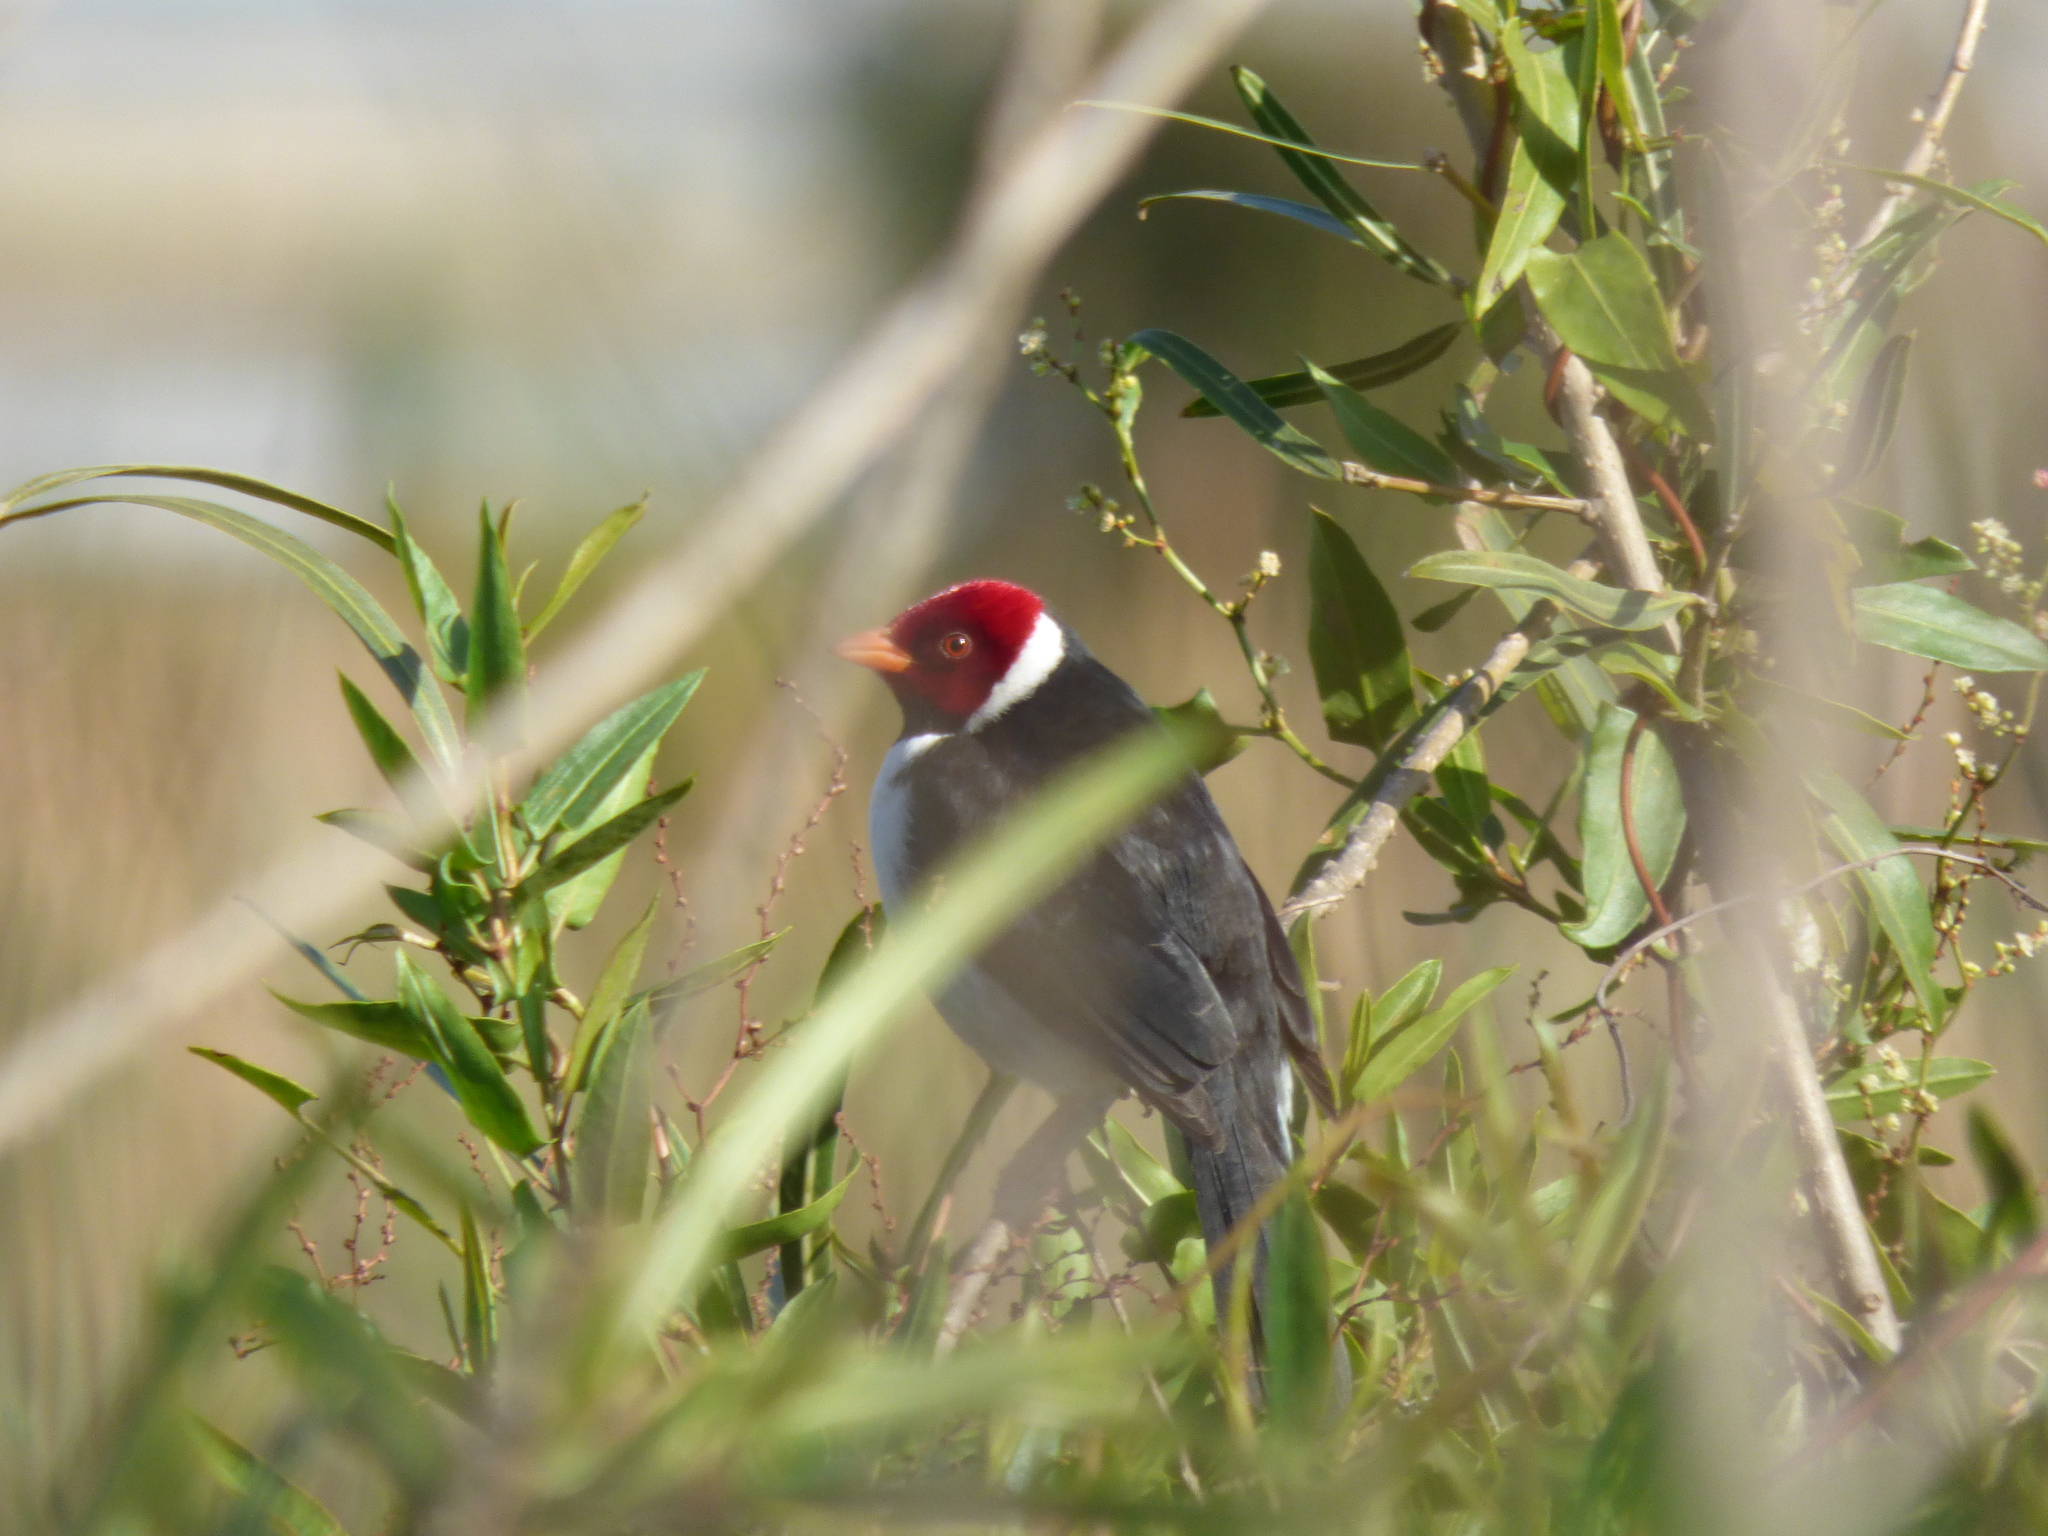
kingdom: Animalia
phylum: Chordata
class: Aves
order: Passeriformes
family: Thraupidae
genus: Paroaria
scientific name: Paroaria capitata
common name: Yellow-billed cardinal
